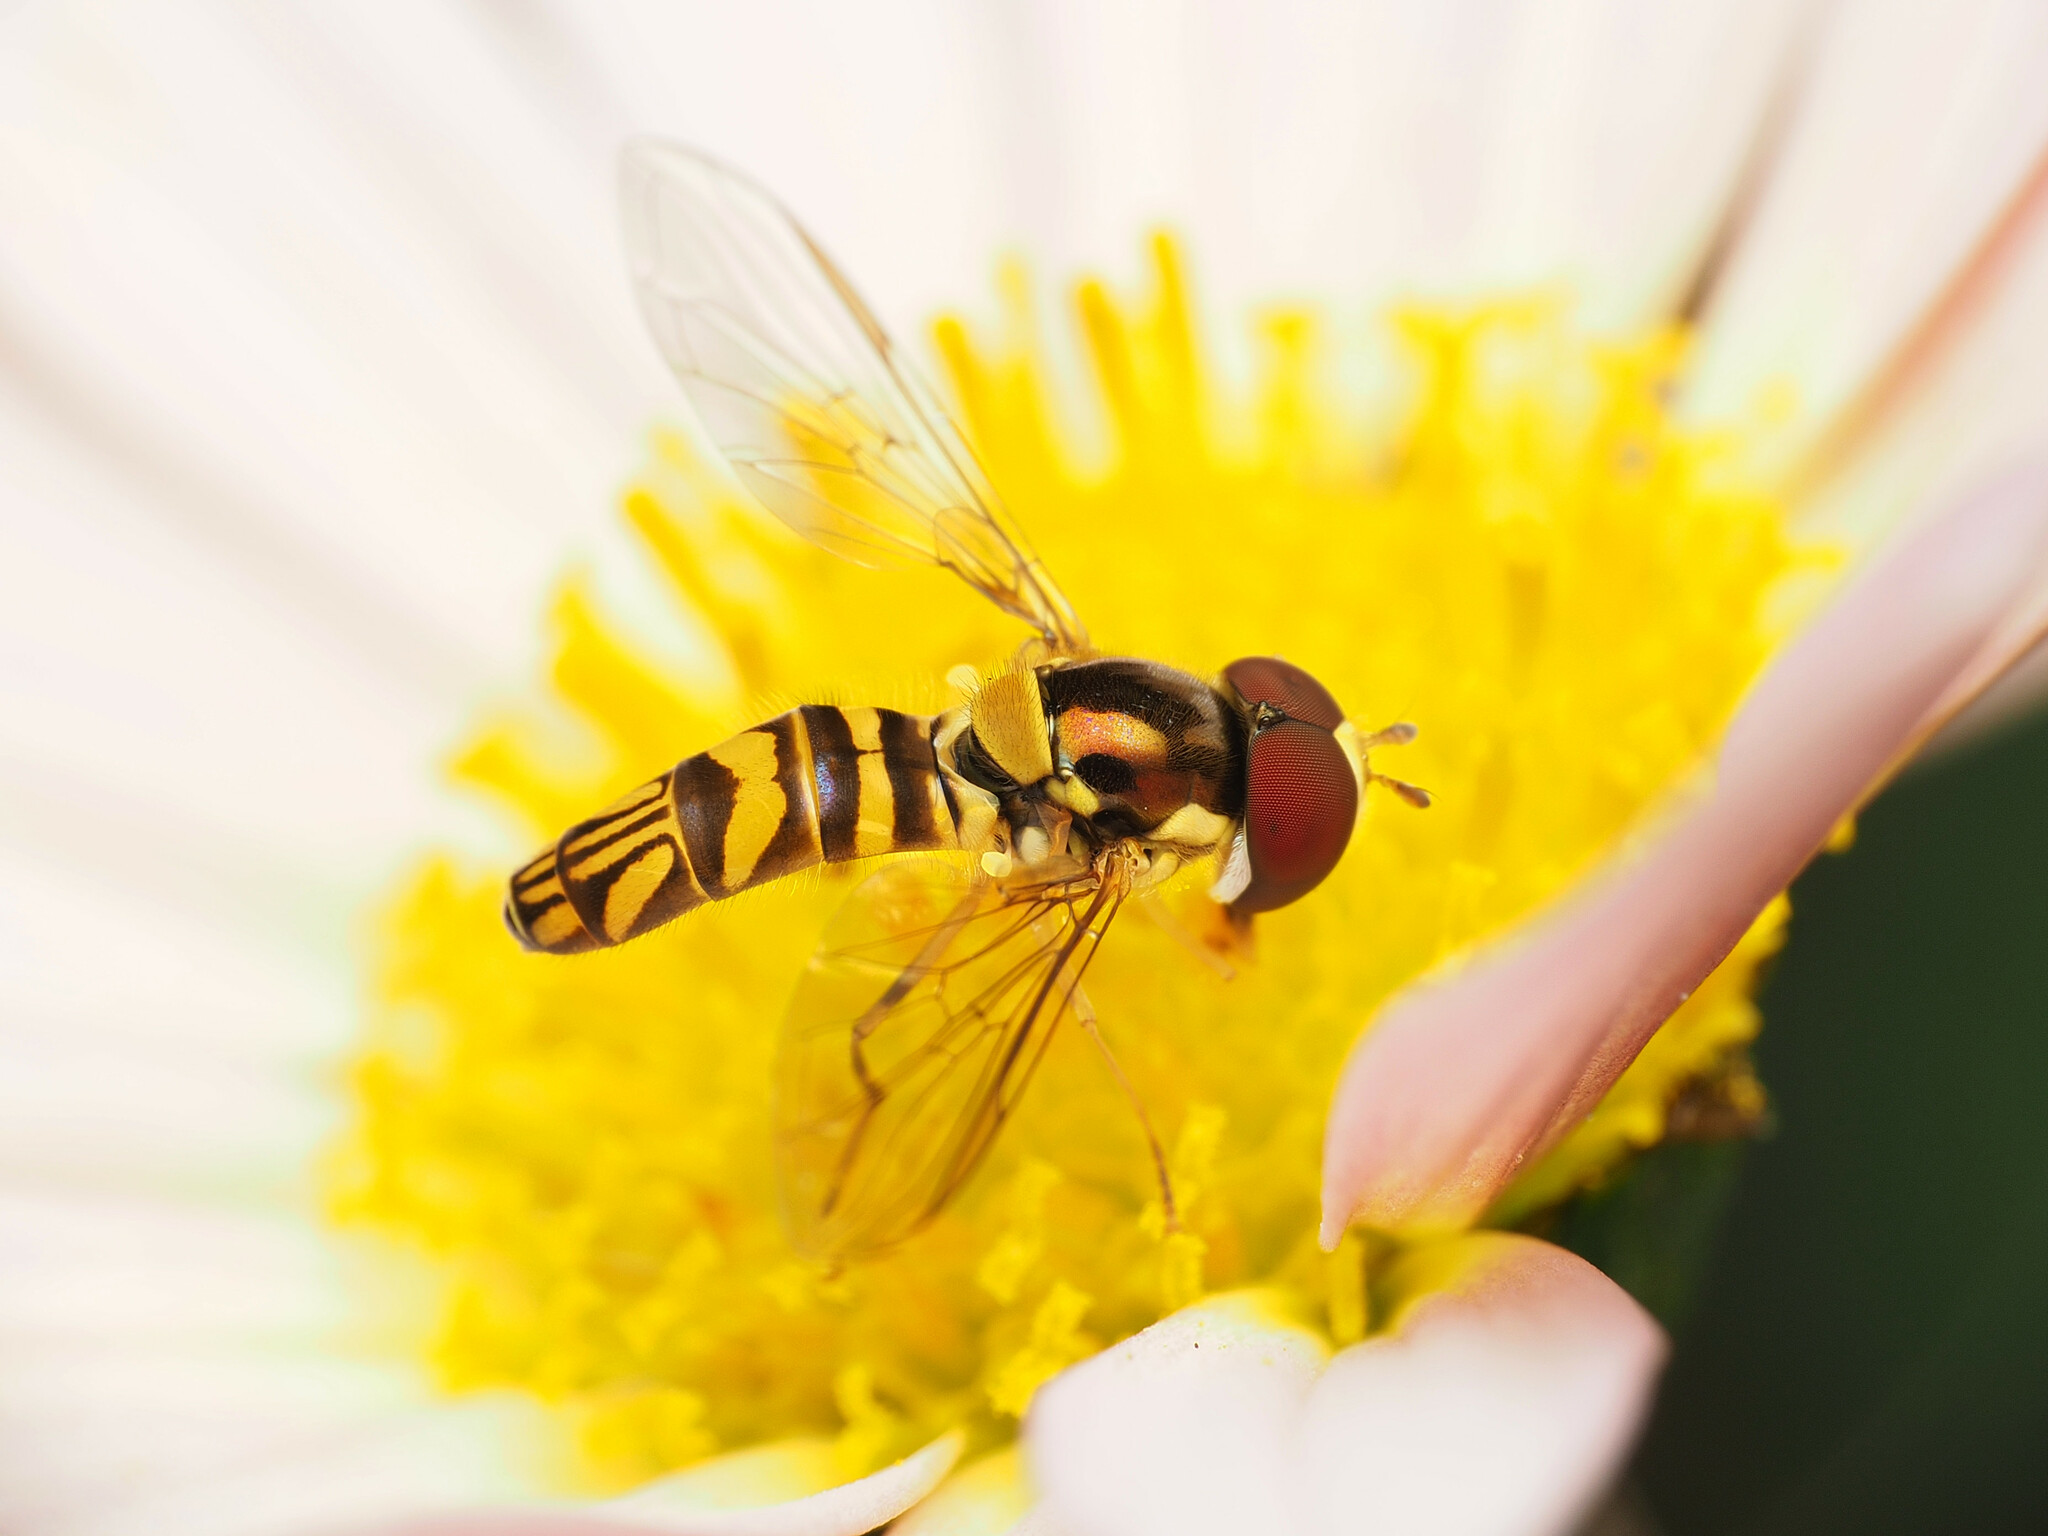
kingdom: Animalia
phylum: Arthropoda
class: Insecta
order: Diptera
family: Syrphidae
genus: Allograpta
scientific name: Allograpta obliqua
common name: Common oblique syrphid
